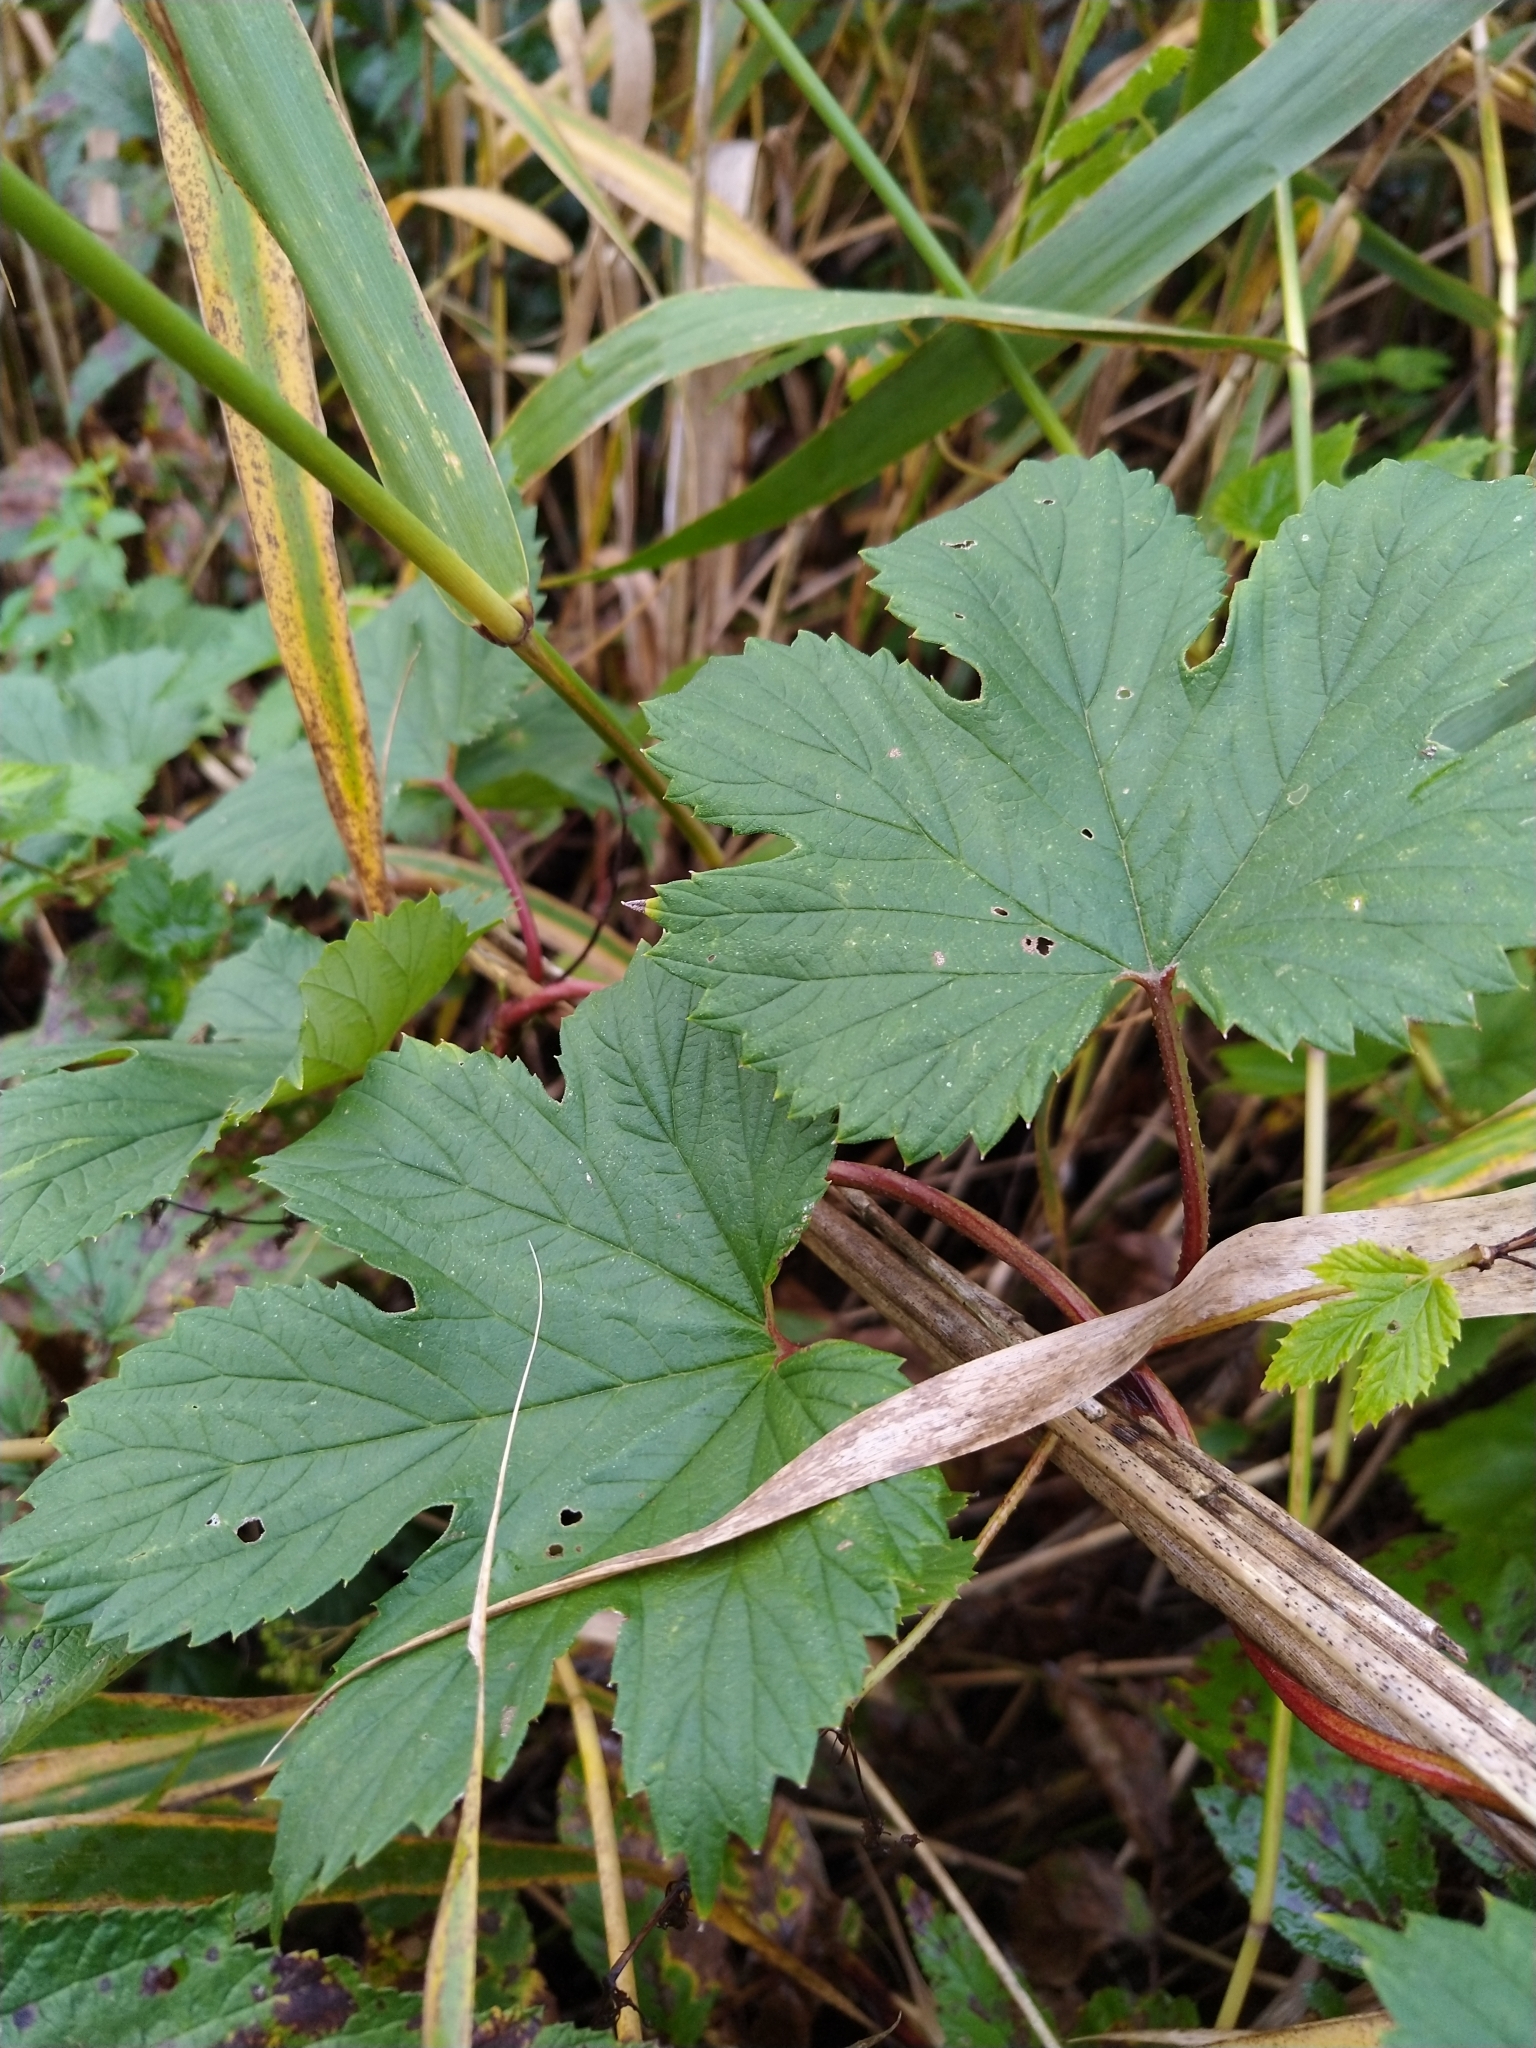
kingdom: Plantae
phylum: Tracheophyta
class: Magnoliopsida
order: Rosales
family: Cannabaceae
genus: Humulus
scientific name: Humulus lupulus
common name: Hop
